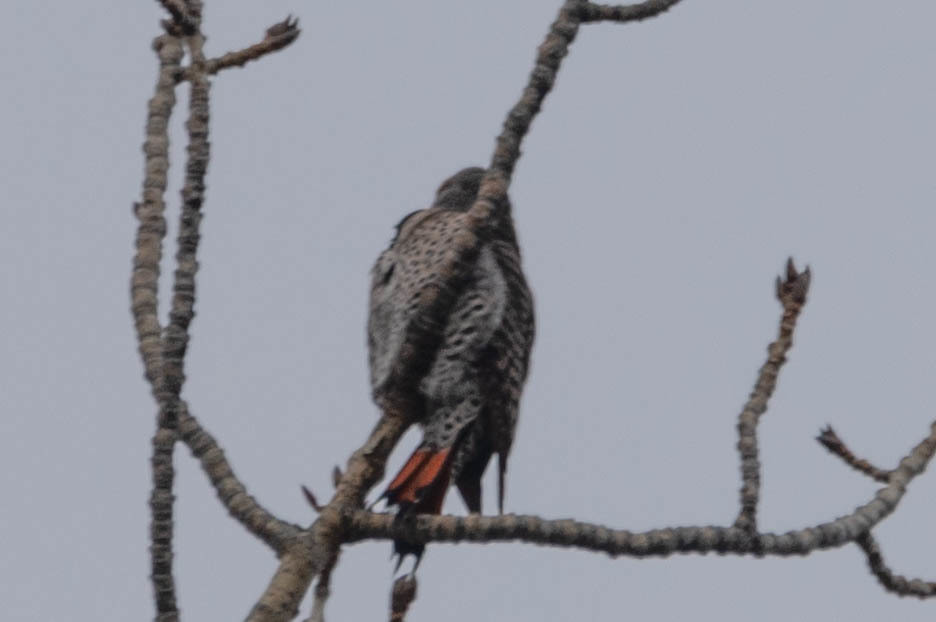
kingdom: Animalia
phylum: Chordata
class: Aves
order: Piciformes
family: Picidae
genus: Colaptes
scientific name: Colaptes auratus
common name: Northern flicker
